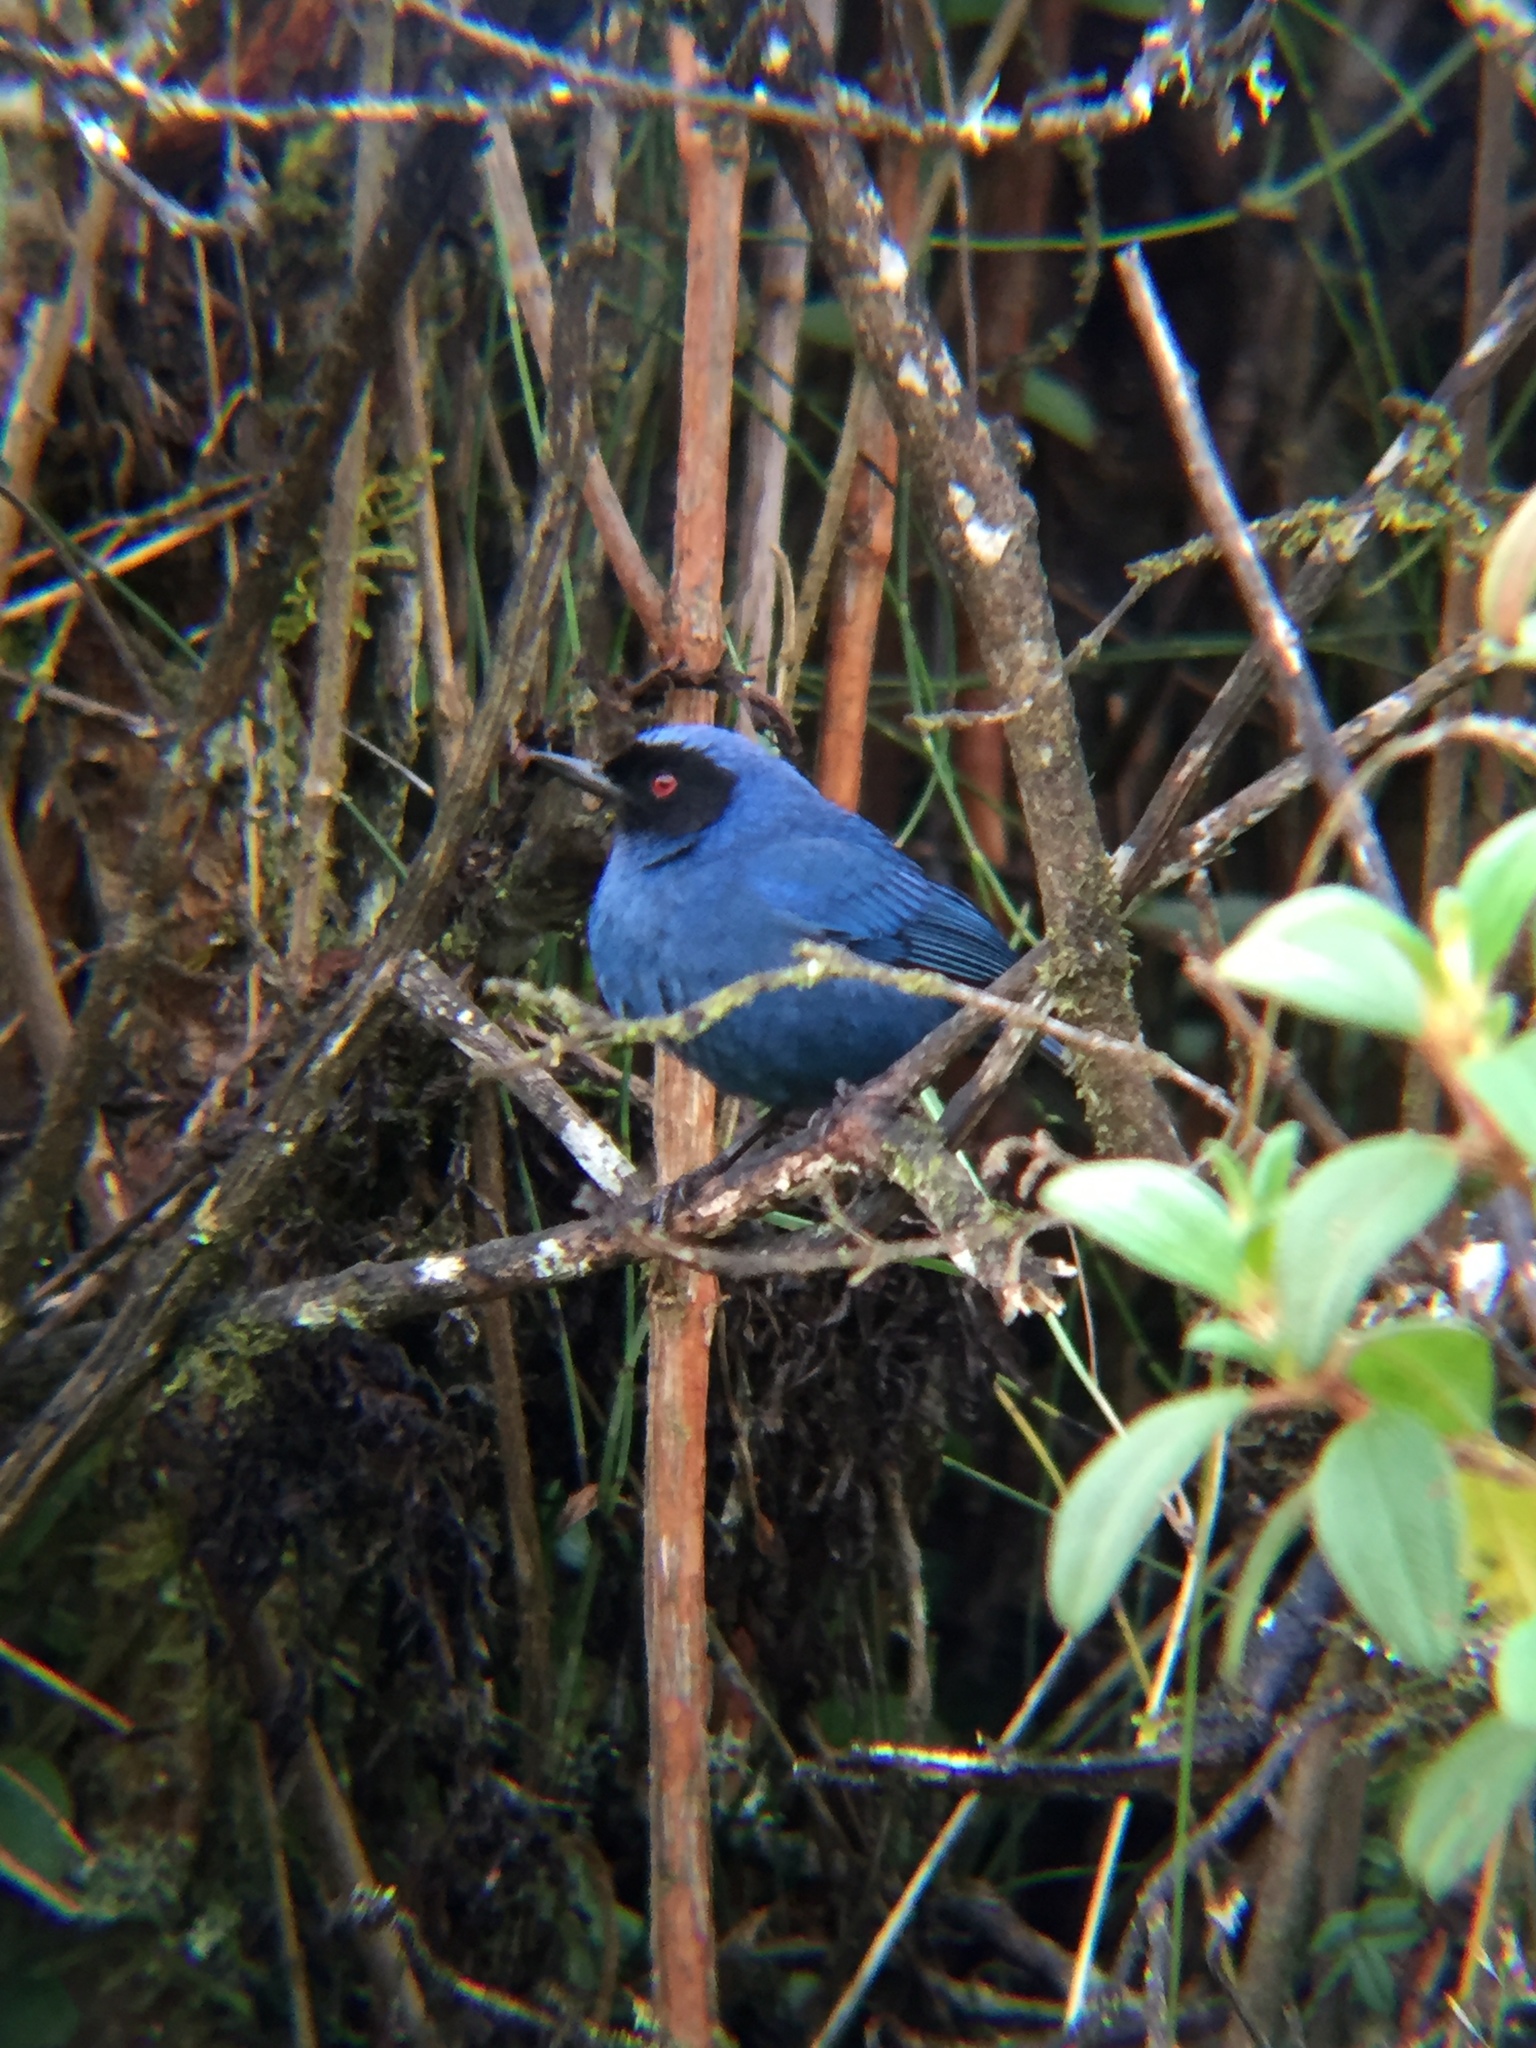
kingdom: Animalia
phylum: Chordata
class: Aves
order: Passeriformes
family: Thraupidae
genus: Diglossa
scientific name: Diglossa cyanea
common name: Masked flowerpiercer
